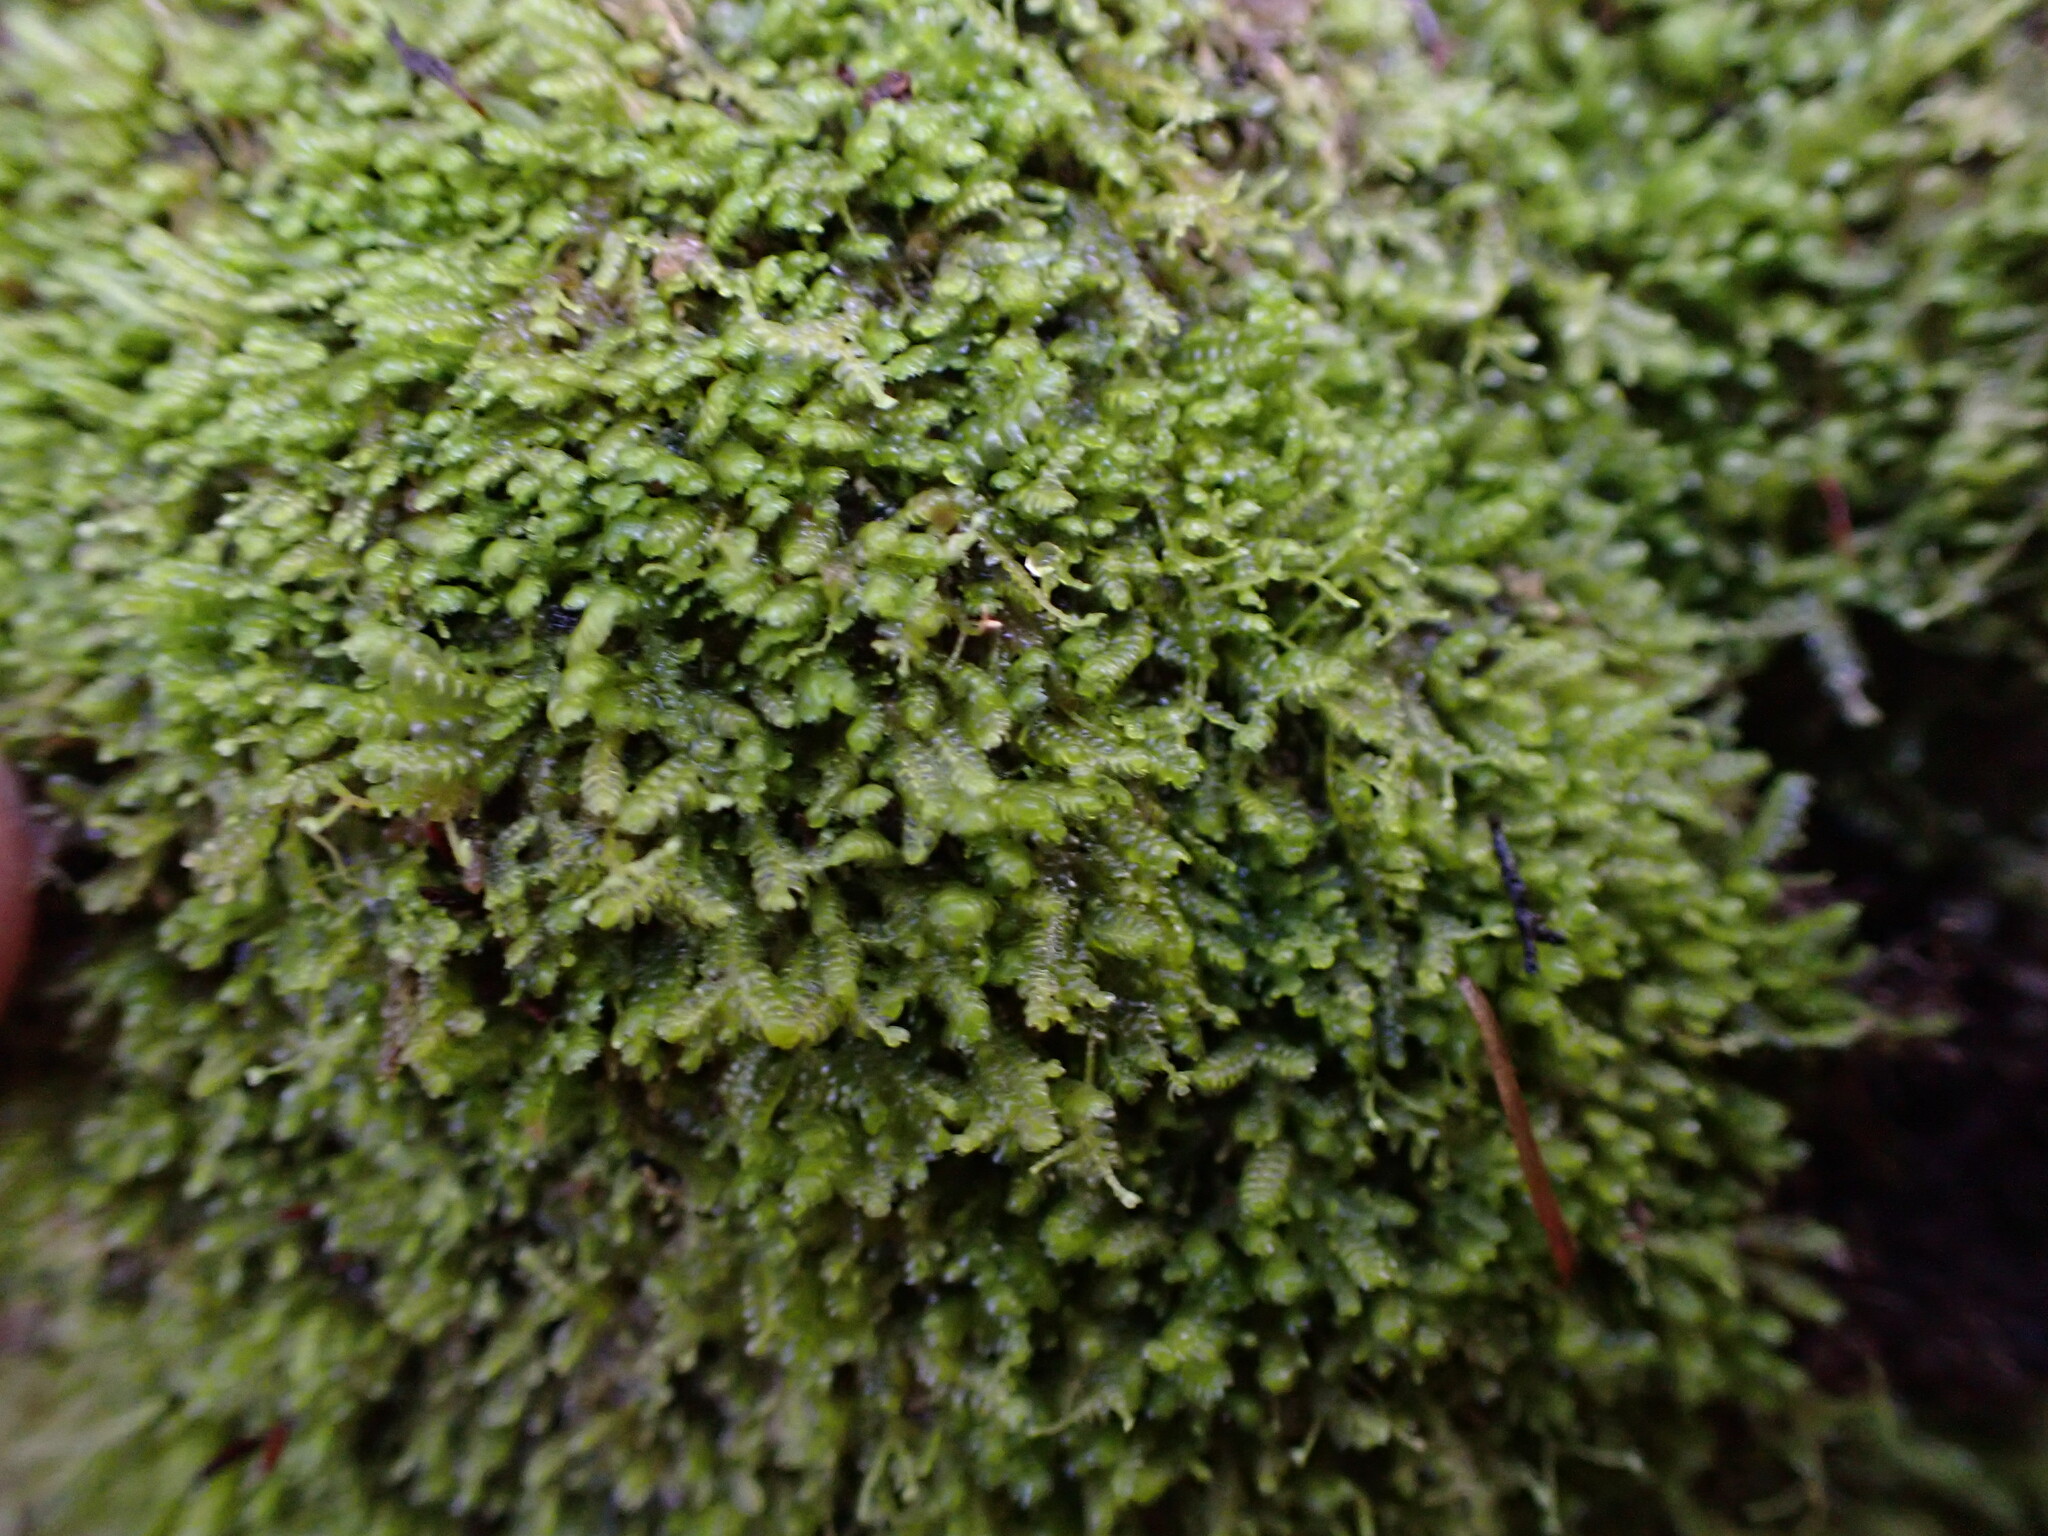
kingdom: Plantae
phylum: Marchantiophyta
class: Jungermanniopsida
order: Jungermanniales
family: Lepidoziaceae
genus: Bazzania
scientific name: Bazzania denudata
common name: Naked whipwort
